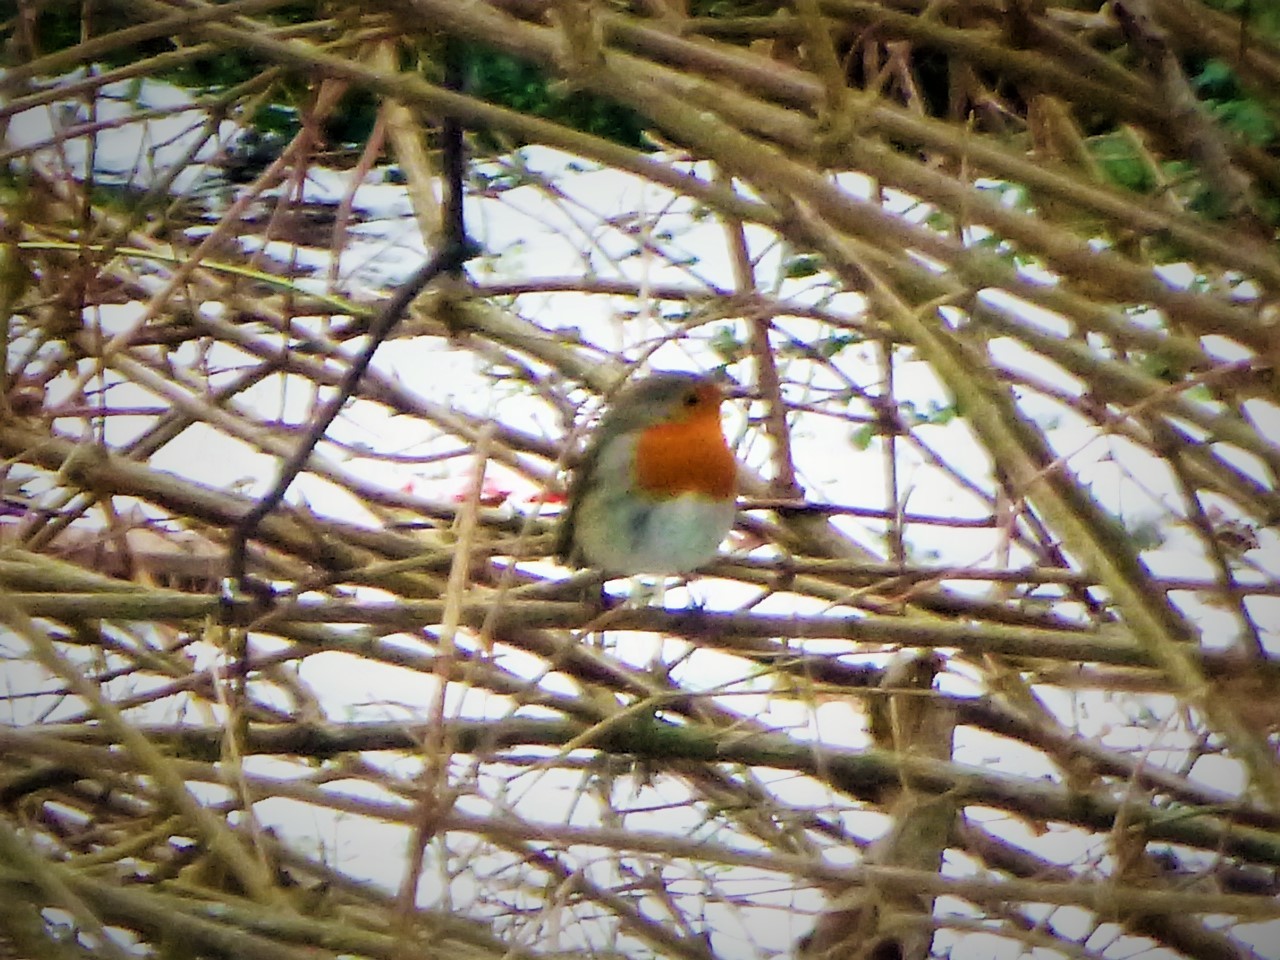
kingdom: Animalia
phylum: Chordata
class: Aves
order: Passeriformes
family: Muscicapidae
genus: Erithacus
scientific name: Erithacus rubecula
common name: European robin
